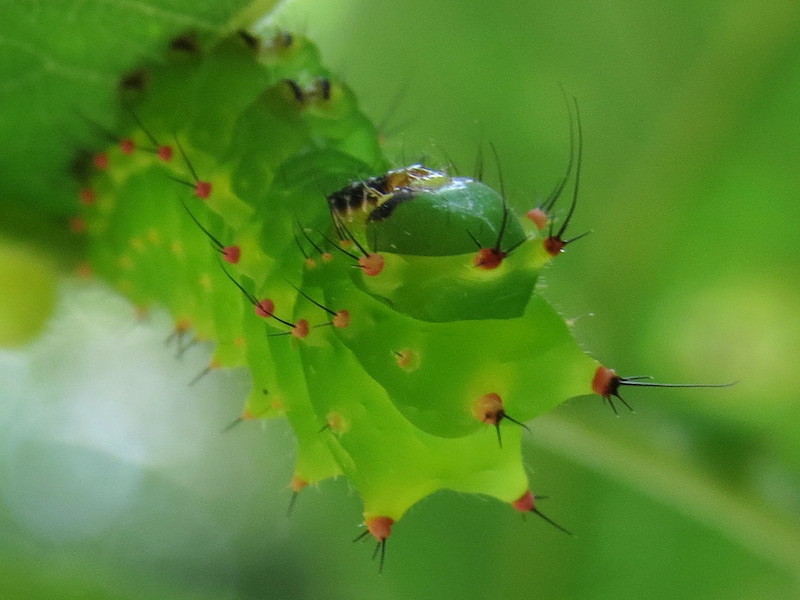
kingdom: Animalia
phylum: Arthropoda
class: Insecta
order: Lepidoptera
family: Saturniidae
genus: Actias
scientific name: Actias luna
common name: Luna moth
